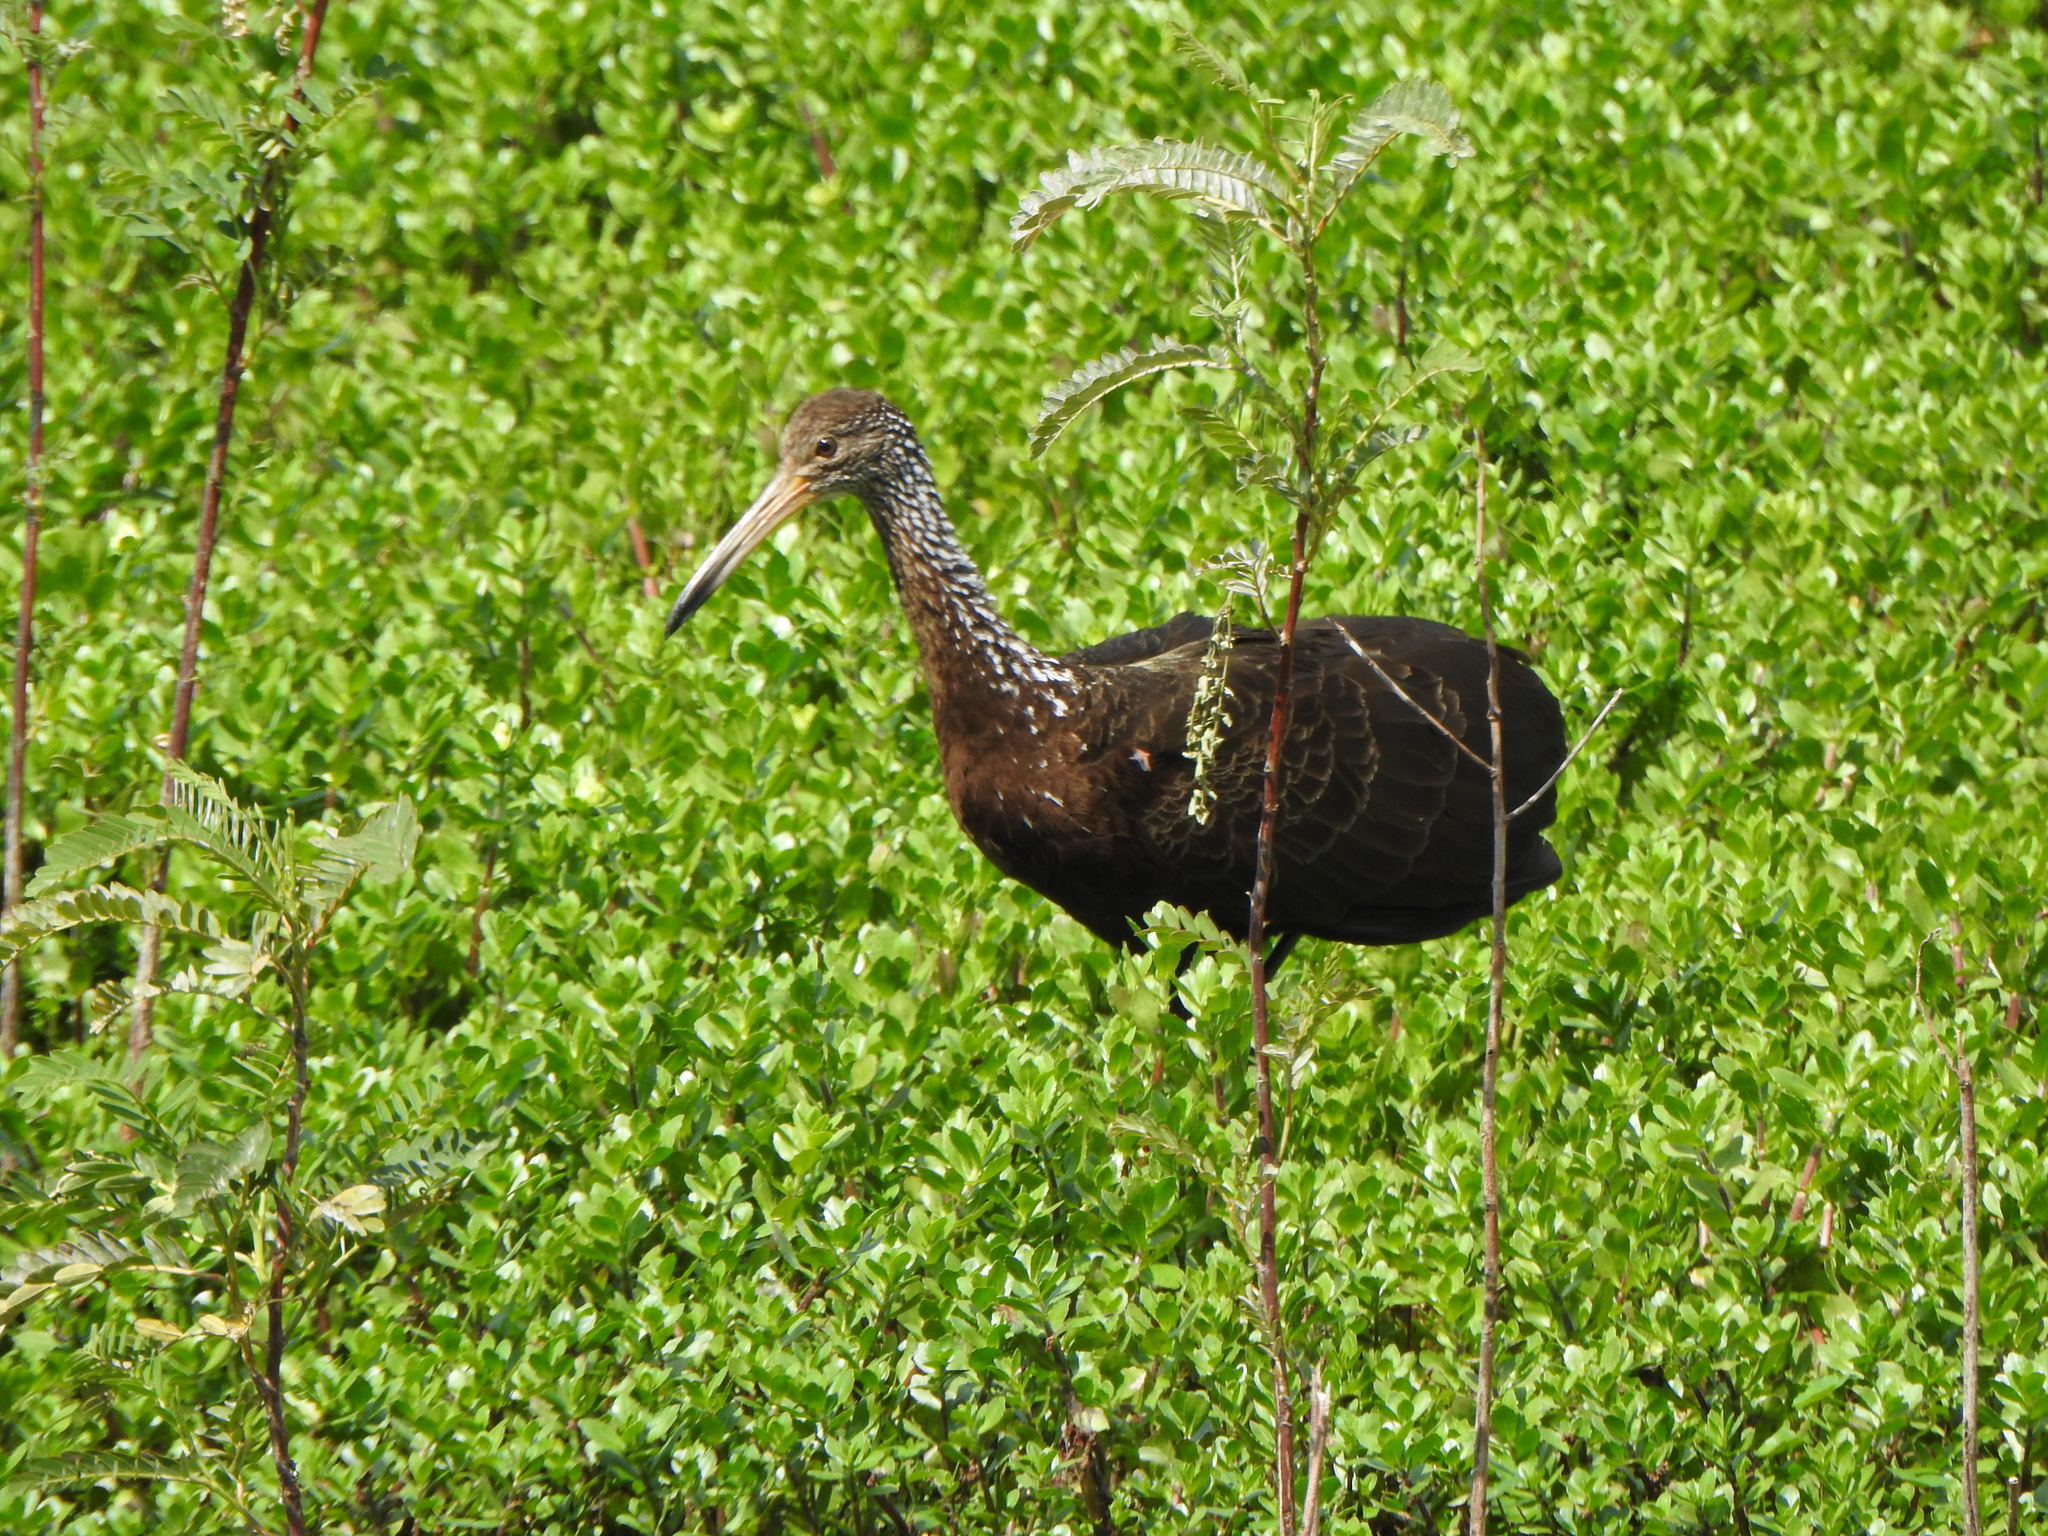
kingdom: Animalia
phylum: Chordata
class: Aves
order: Gruiformes
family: Aramidae
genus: Aramus
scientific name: Aramus guarauna
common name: Limpkin
